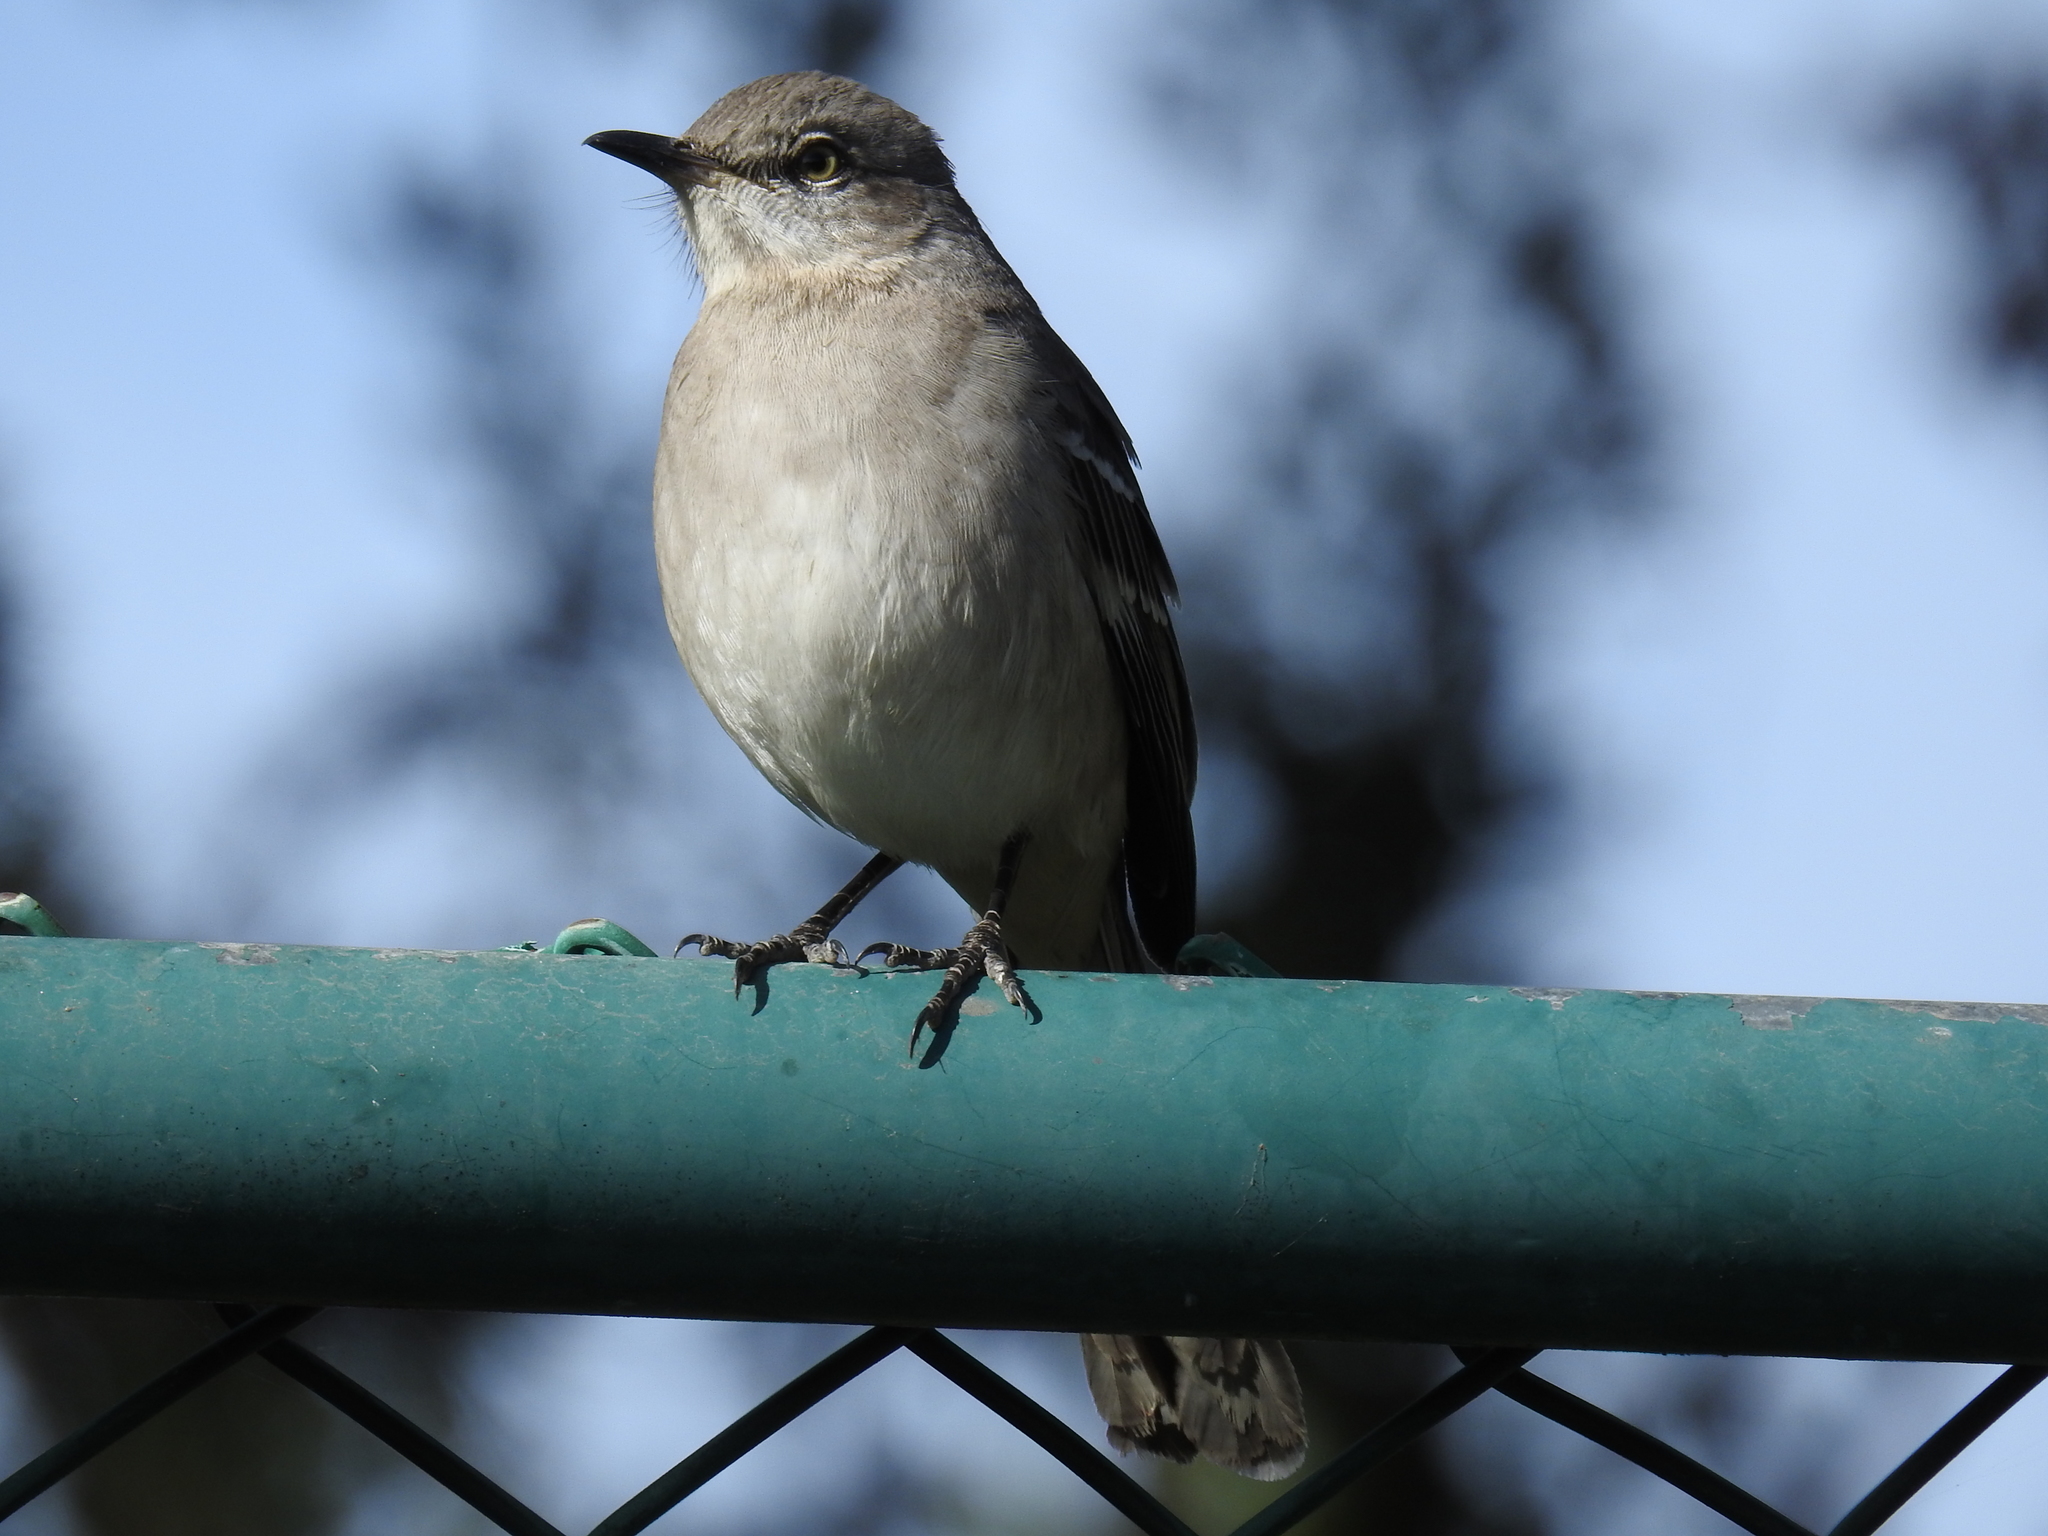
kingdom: Animalia
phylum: Chordata
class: Aves
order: Passeriformes
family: Mimidae
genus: Mimus
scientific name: Mimus polyglottos
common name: Northern mockingbird
